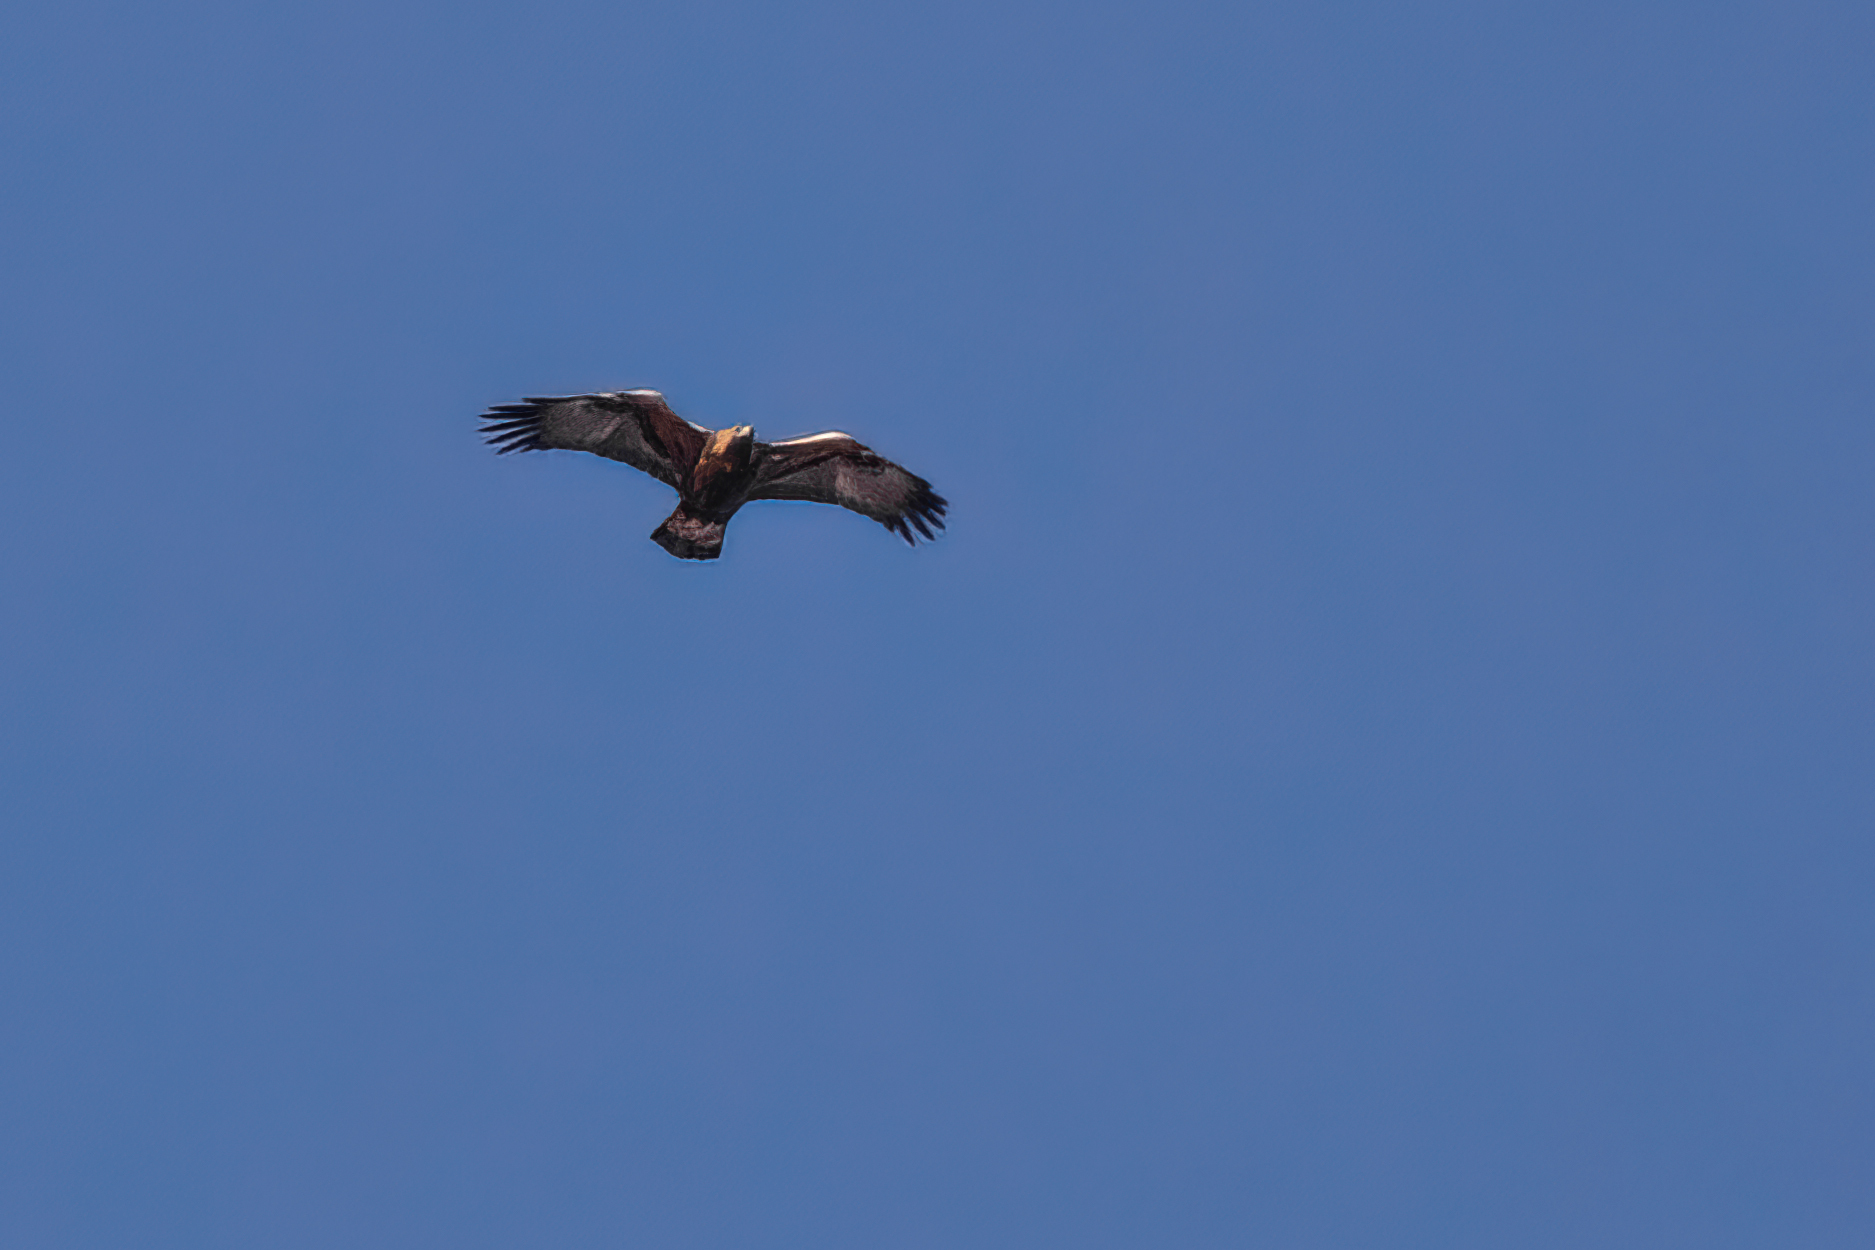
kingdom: Animalia
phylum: Chordata
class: Aves
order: Accipitriformes
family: Accipitridae
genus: Aquila
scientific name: Aquila chrysaetos
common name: Golden eagle
